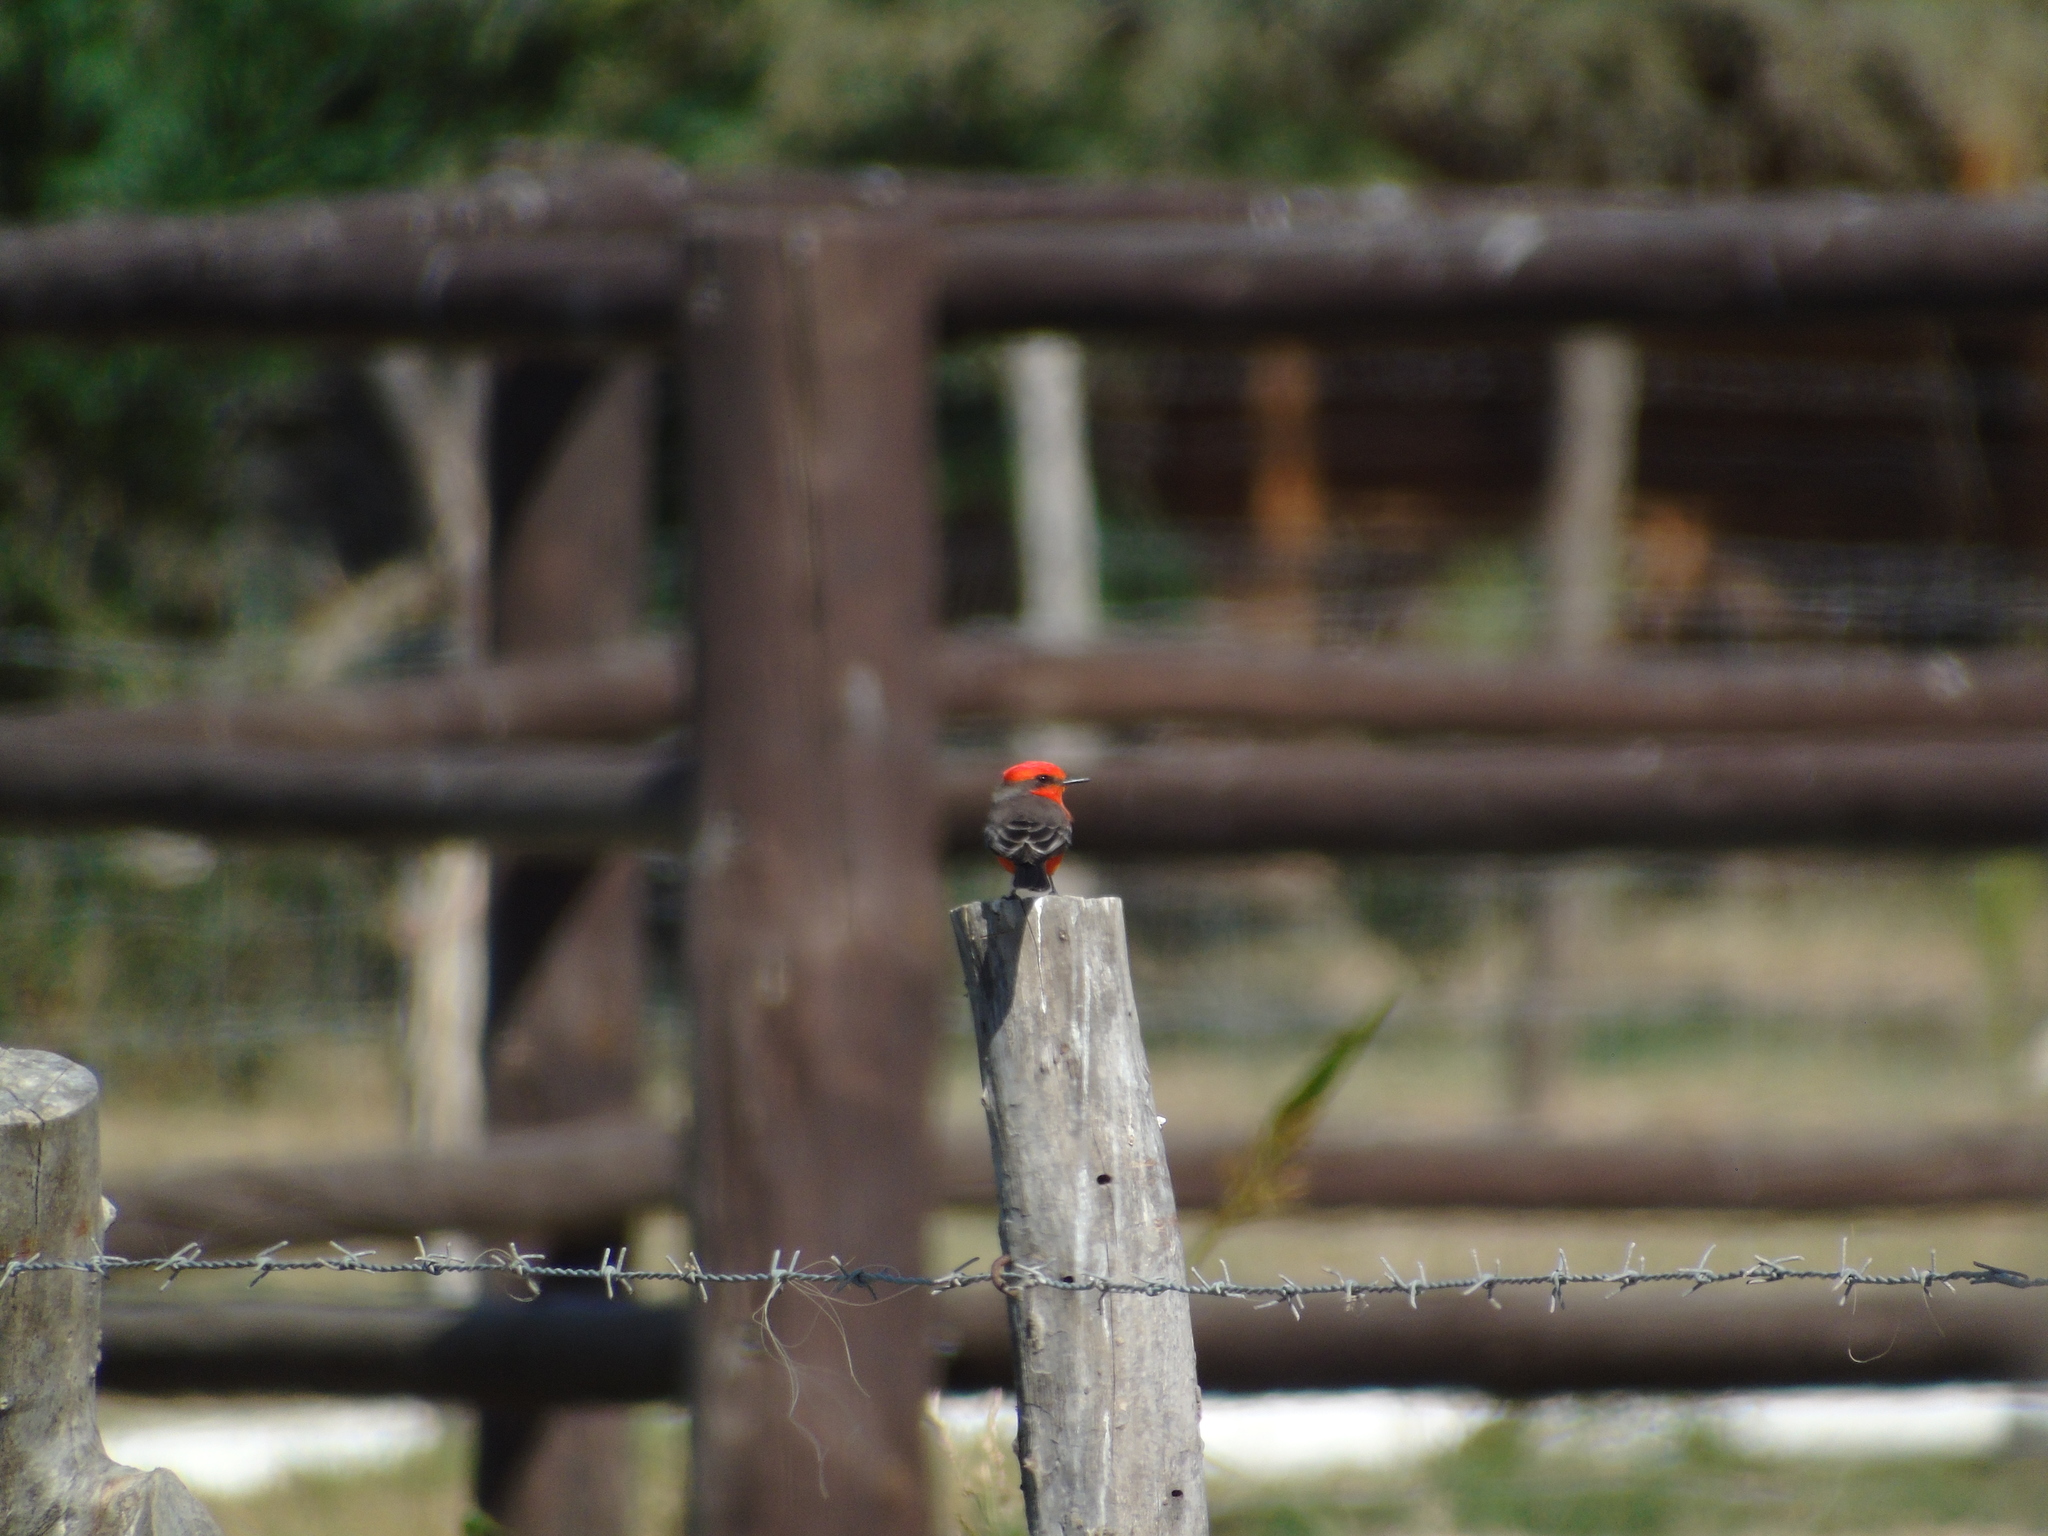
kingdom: Animalia
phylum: Chordata
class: Aves
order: Passeriformes
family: Tyrannidae
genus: Pyrocephalus
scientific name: Pyrocephalus rubinus
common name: Vermilion flycatcher
